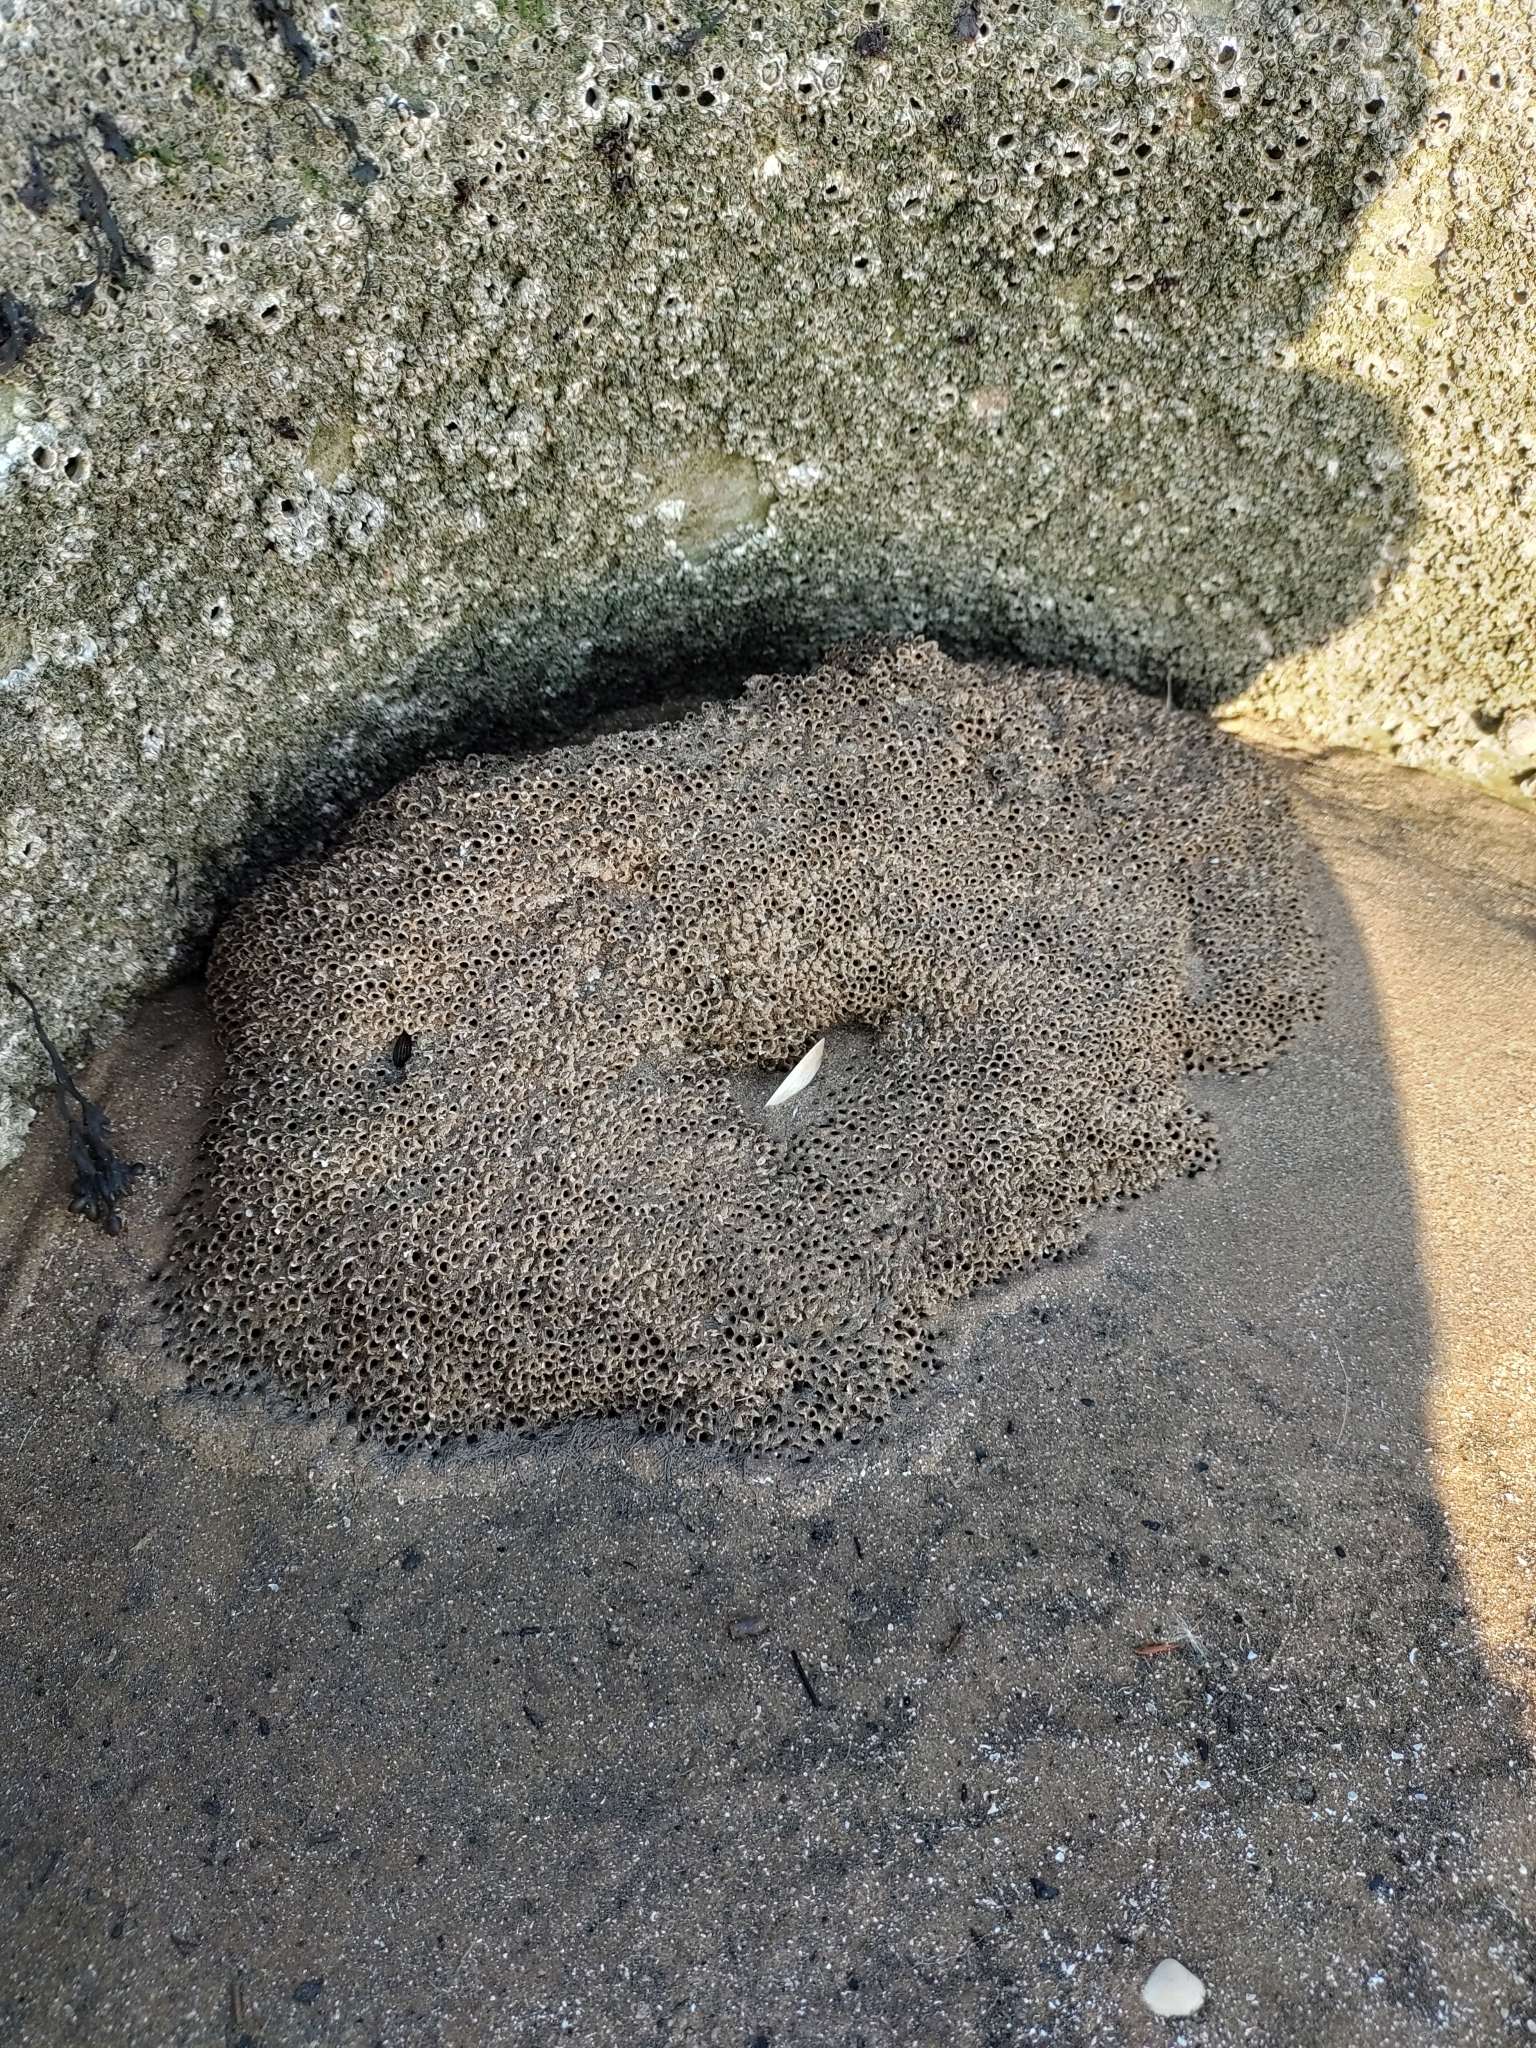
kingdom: Animalia
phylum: Annelida
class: Polychaeta
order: Sabellida
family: Sabellariidae
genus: Sabellaria
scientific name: Sabellaria alveolata
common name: Honeycomb worm
